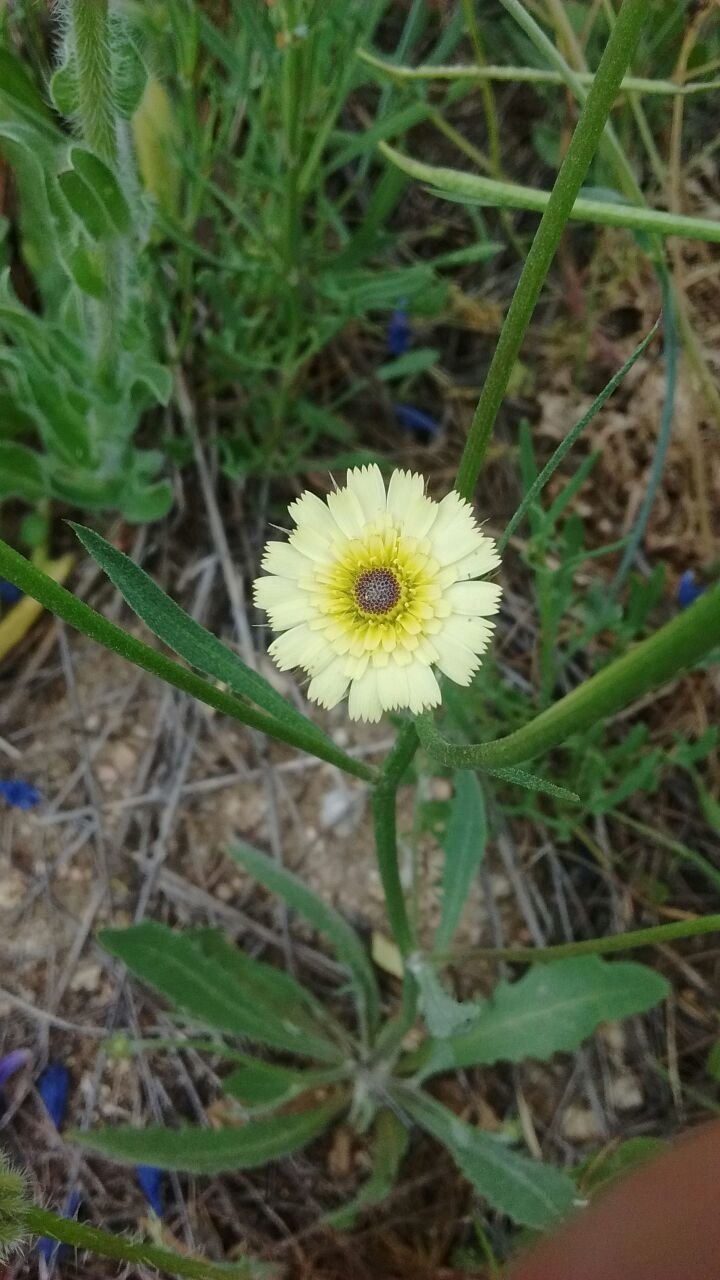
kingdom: Plantae
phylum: Tracheophyta
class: Magnoliopsida
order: Asterales
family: Asteraceae
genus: Tolpis
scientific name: Tolpis barbata
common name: Yellow hawkweed
